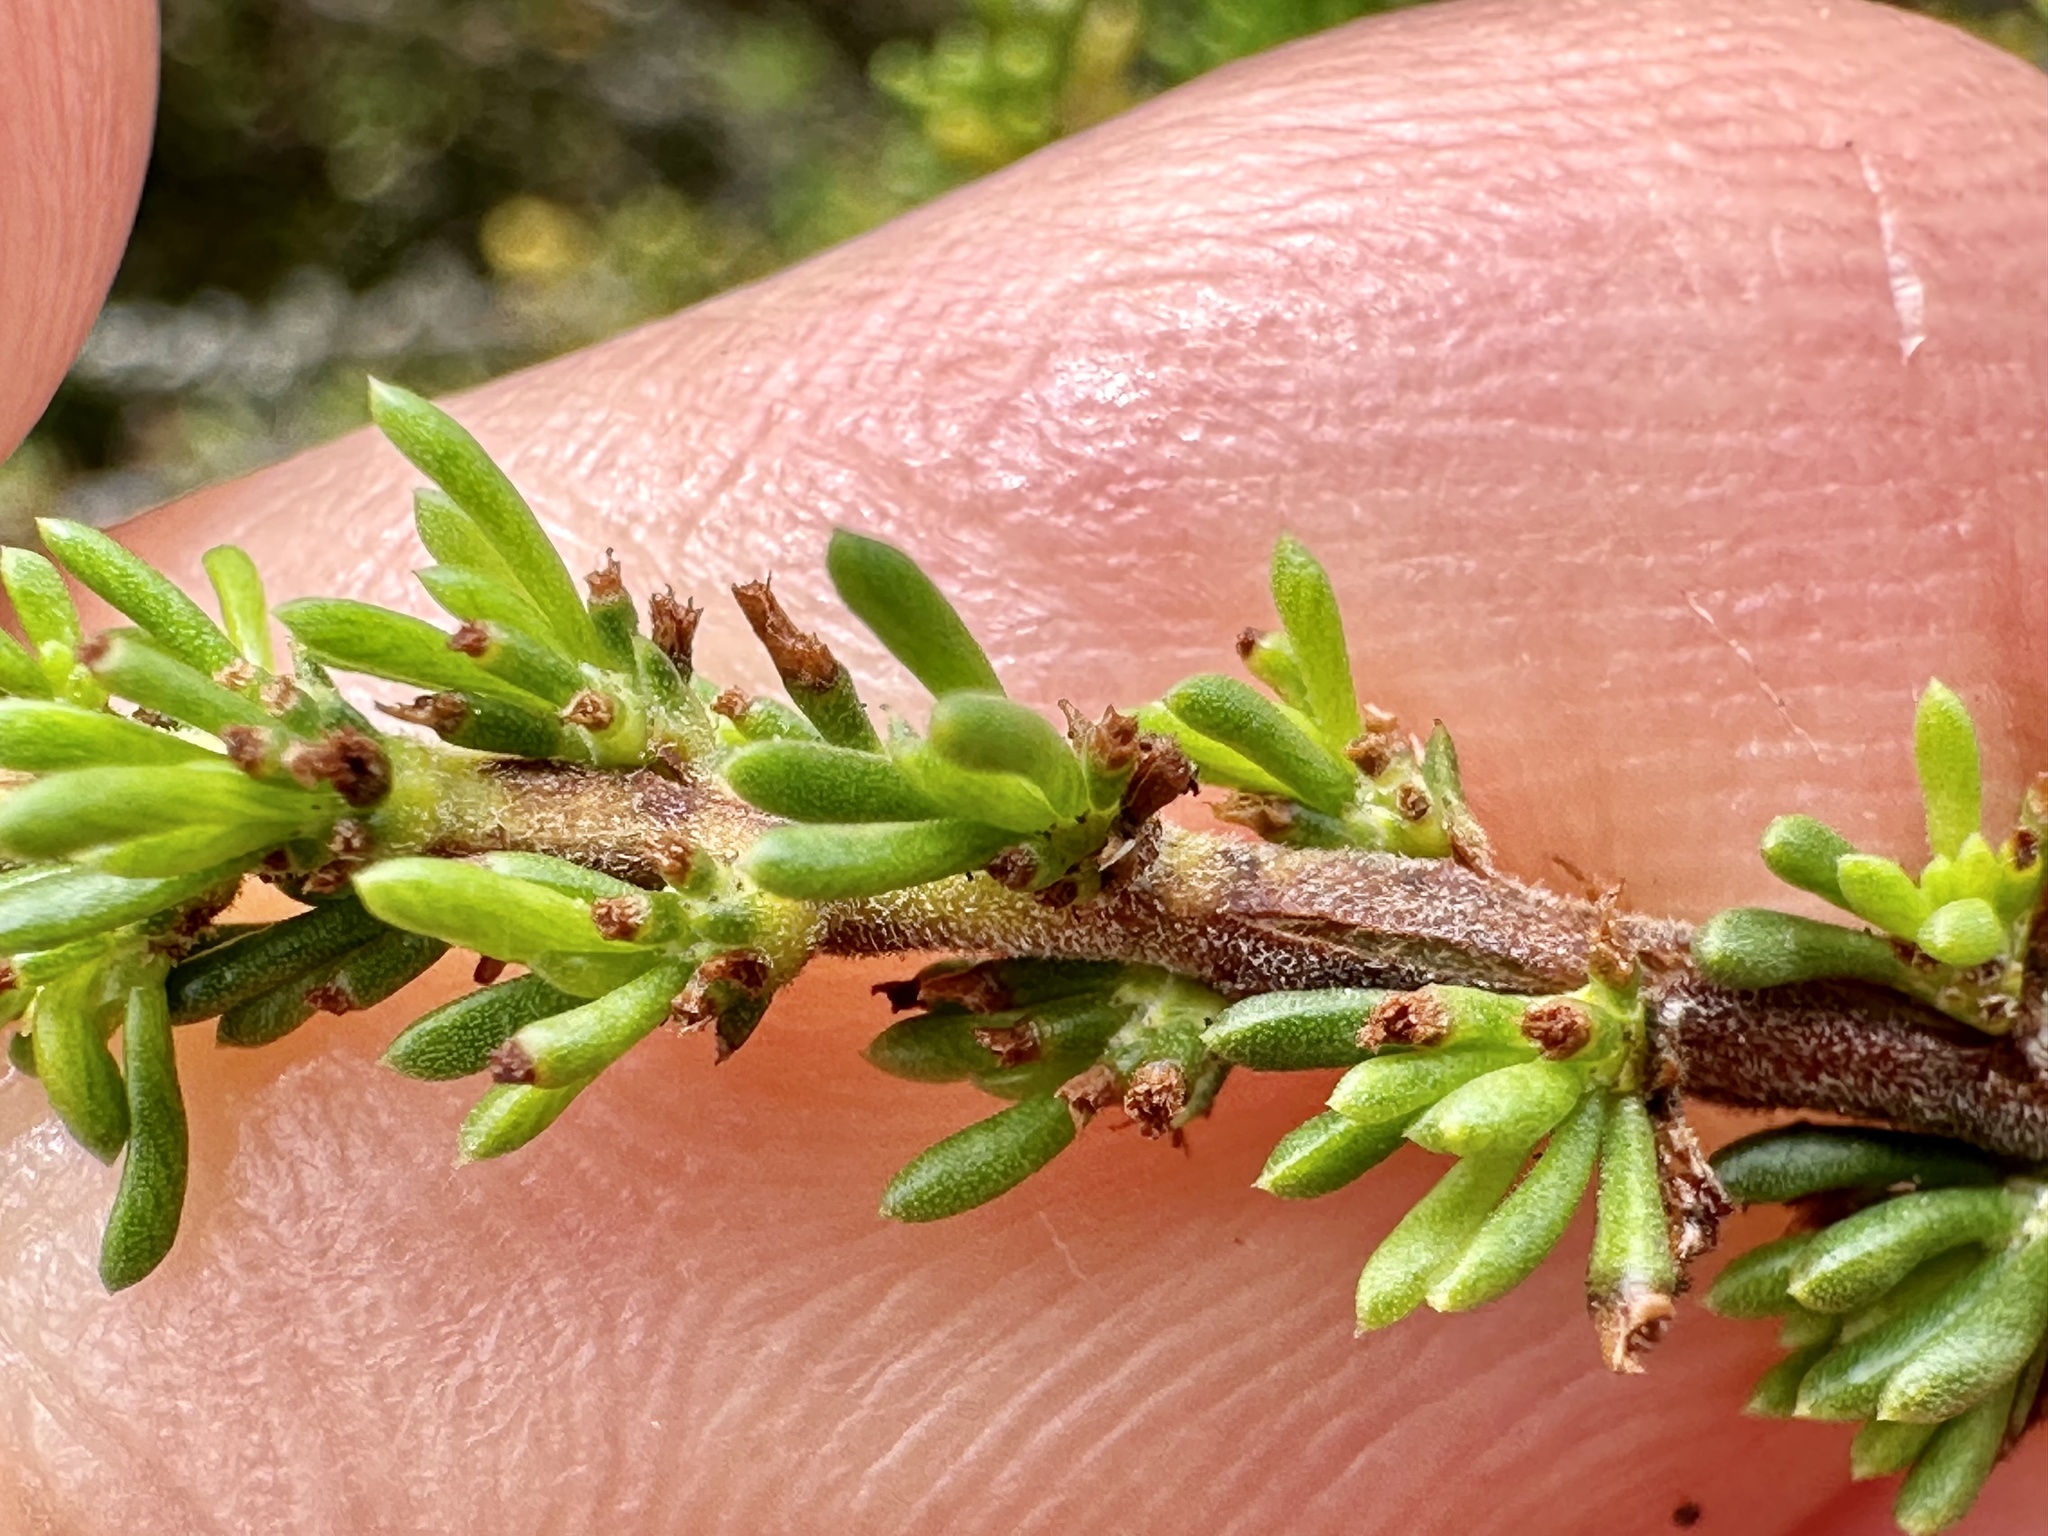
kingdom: Plantae
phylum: Tracheophyta
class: Magnoliopsida
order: Rosales
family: Rosaceae
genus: Adenostoma
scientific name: Adenostoma fasciculatum
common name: Chamise
